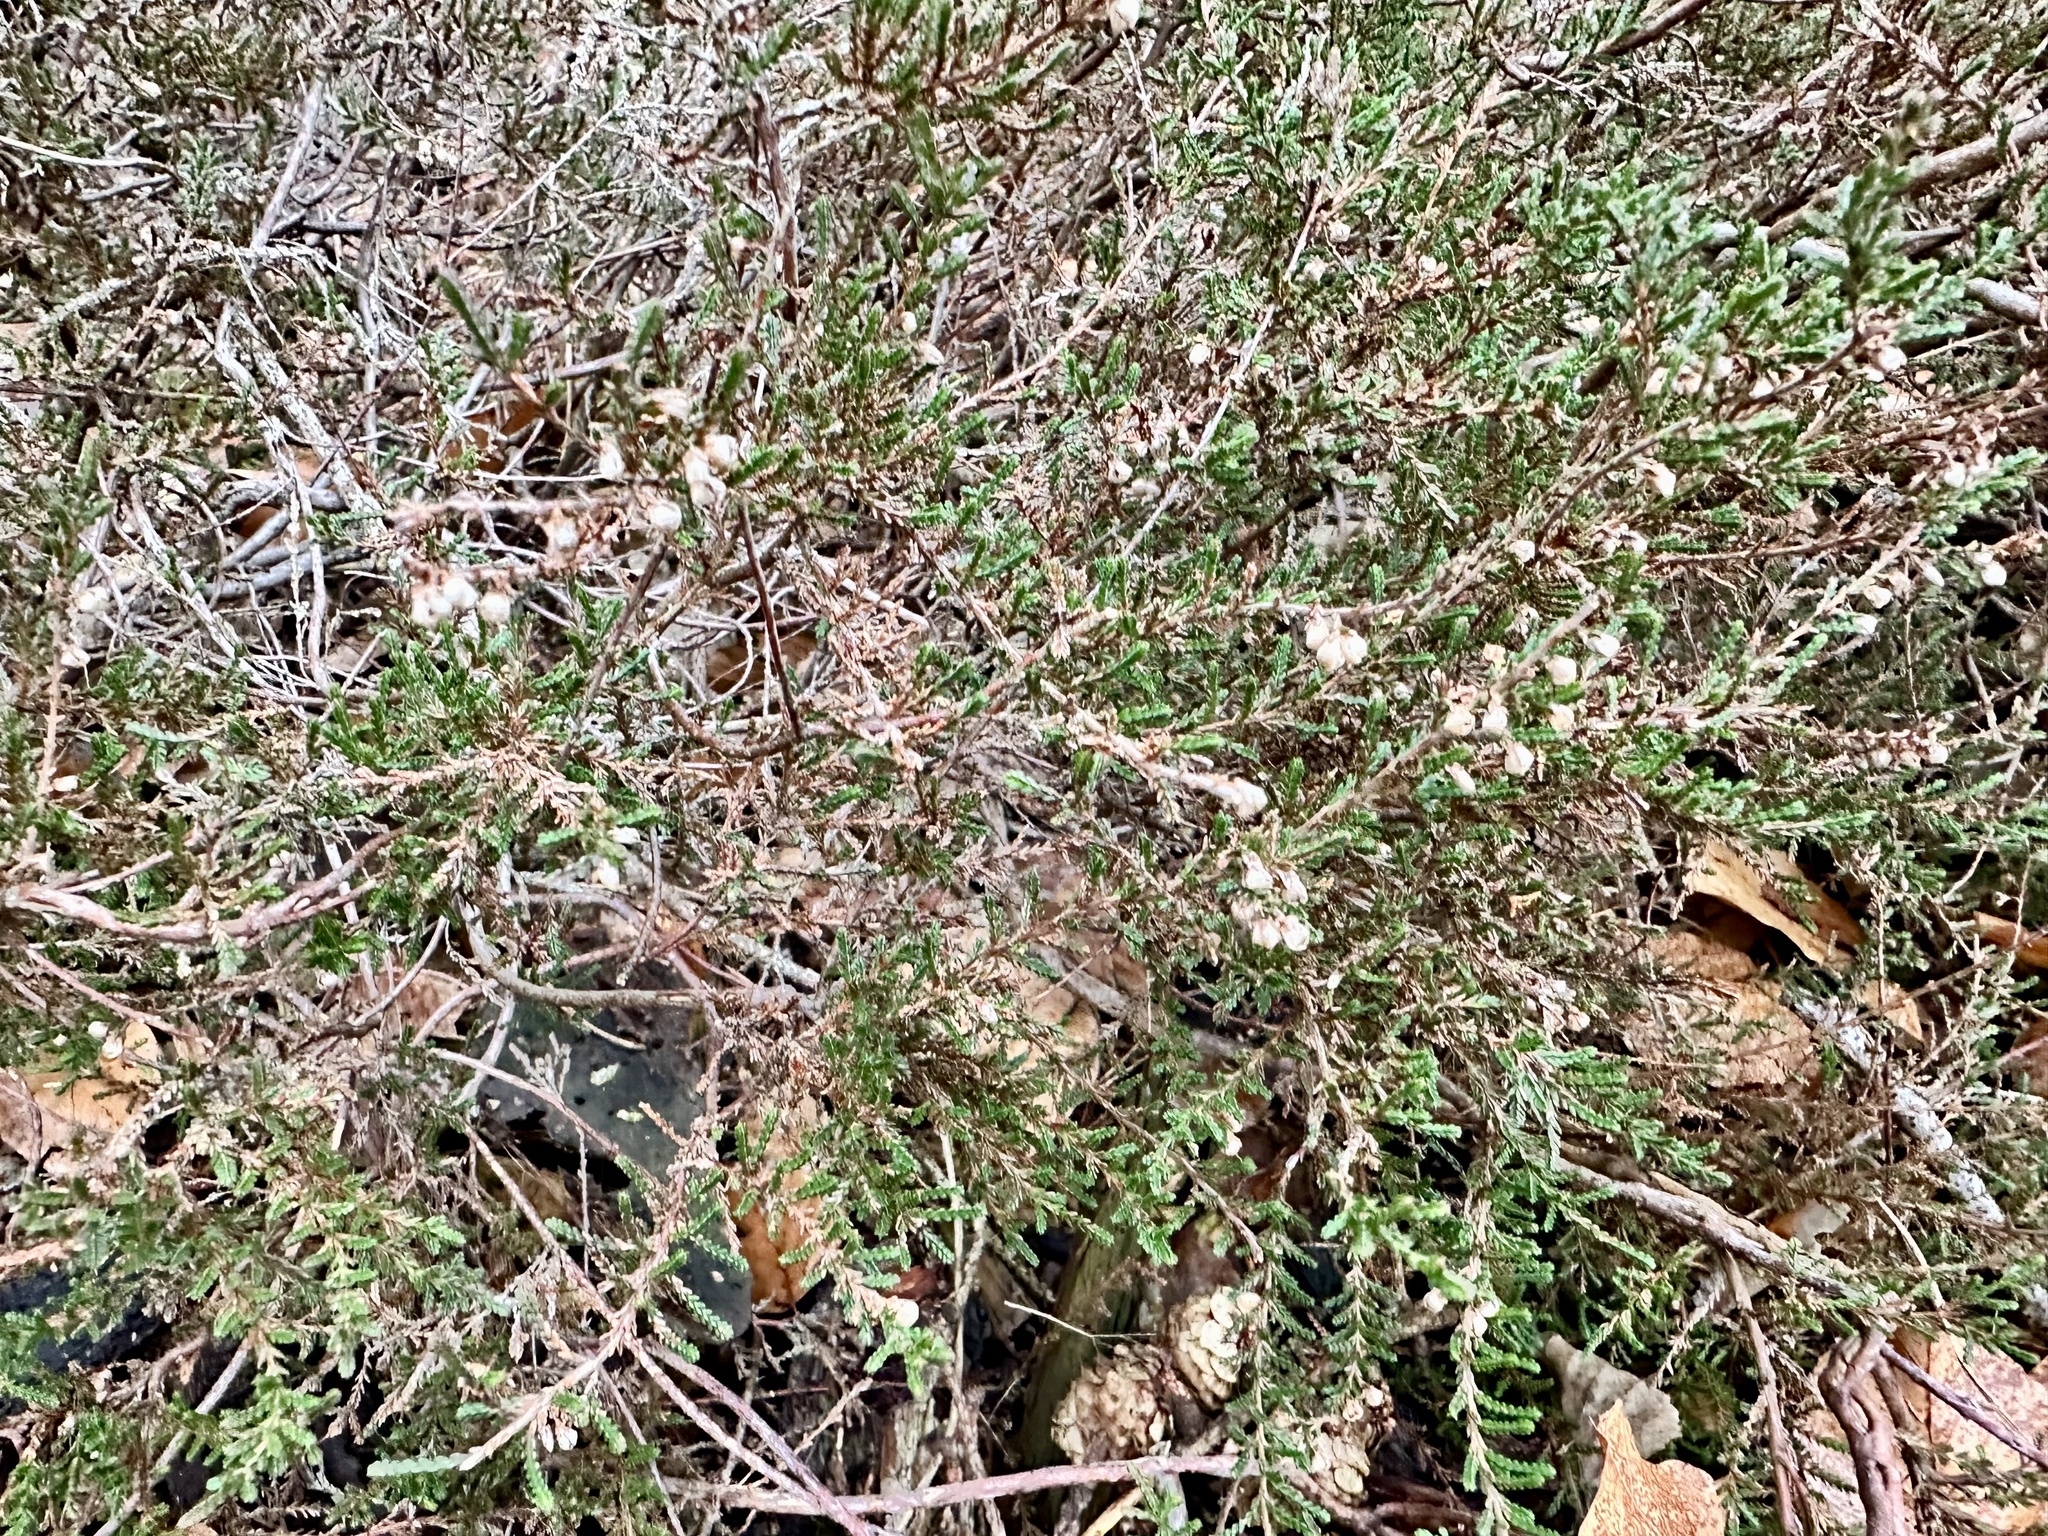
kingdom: Plantae
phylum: Tracheophyta
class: Magnoliopsida
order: Ericales
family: Ericaceae
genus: Calluna
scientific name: Calluna vulgaris
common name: Heather
